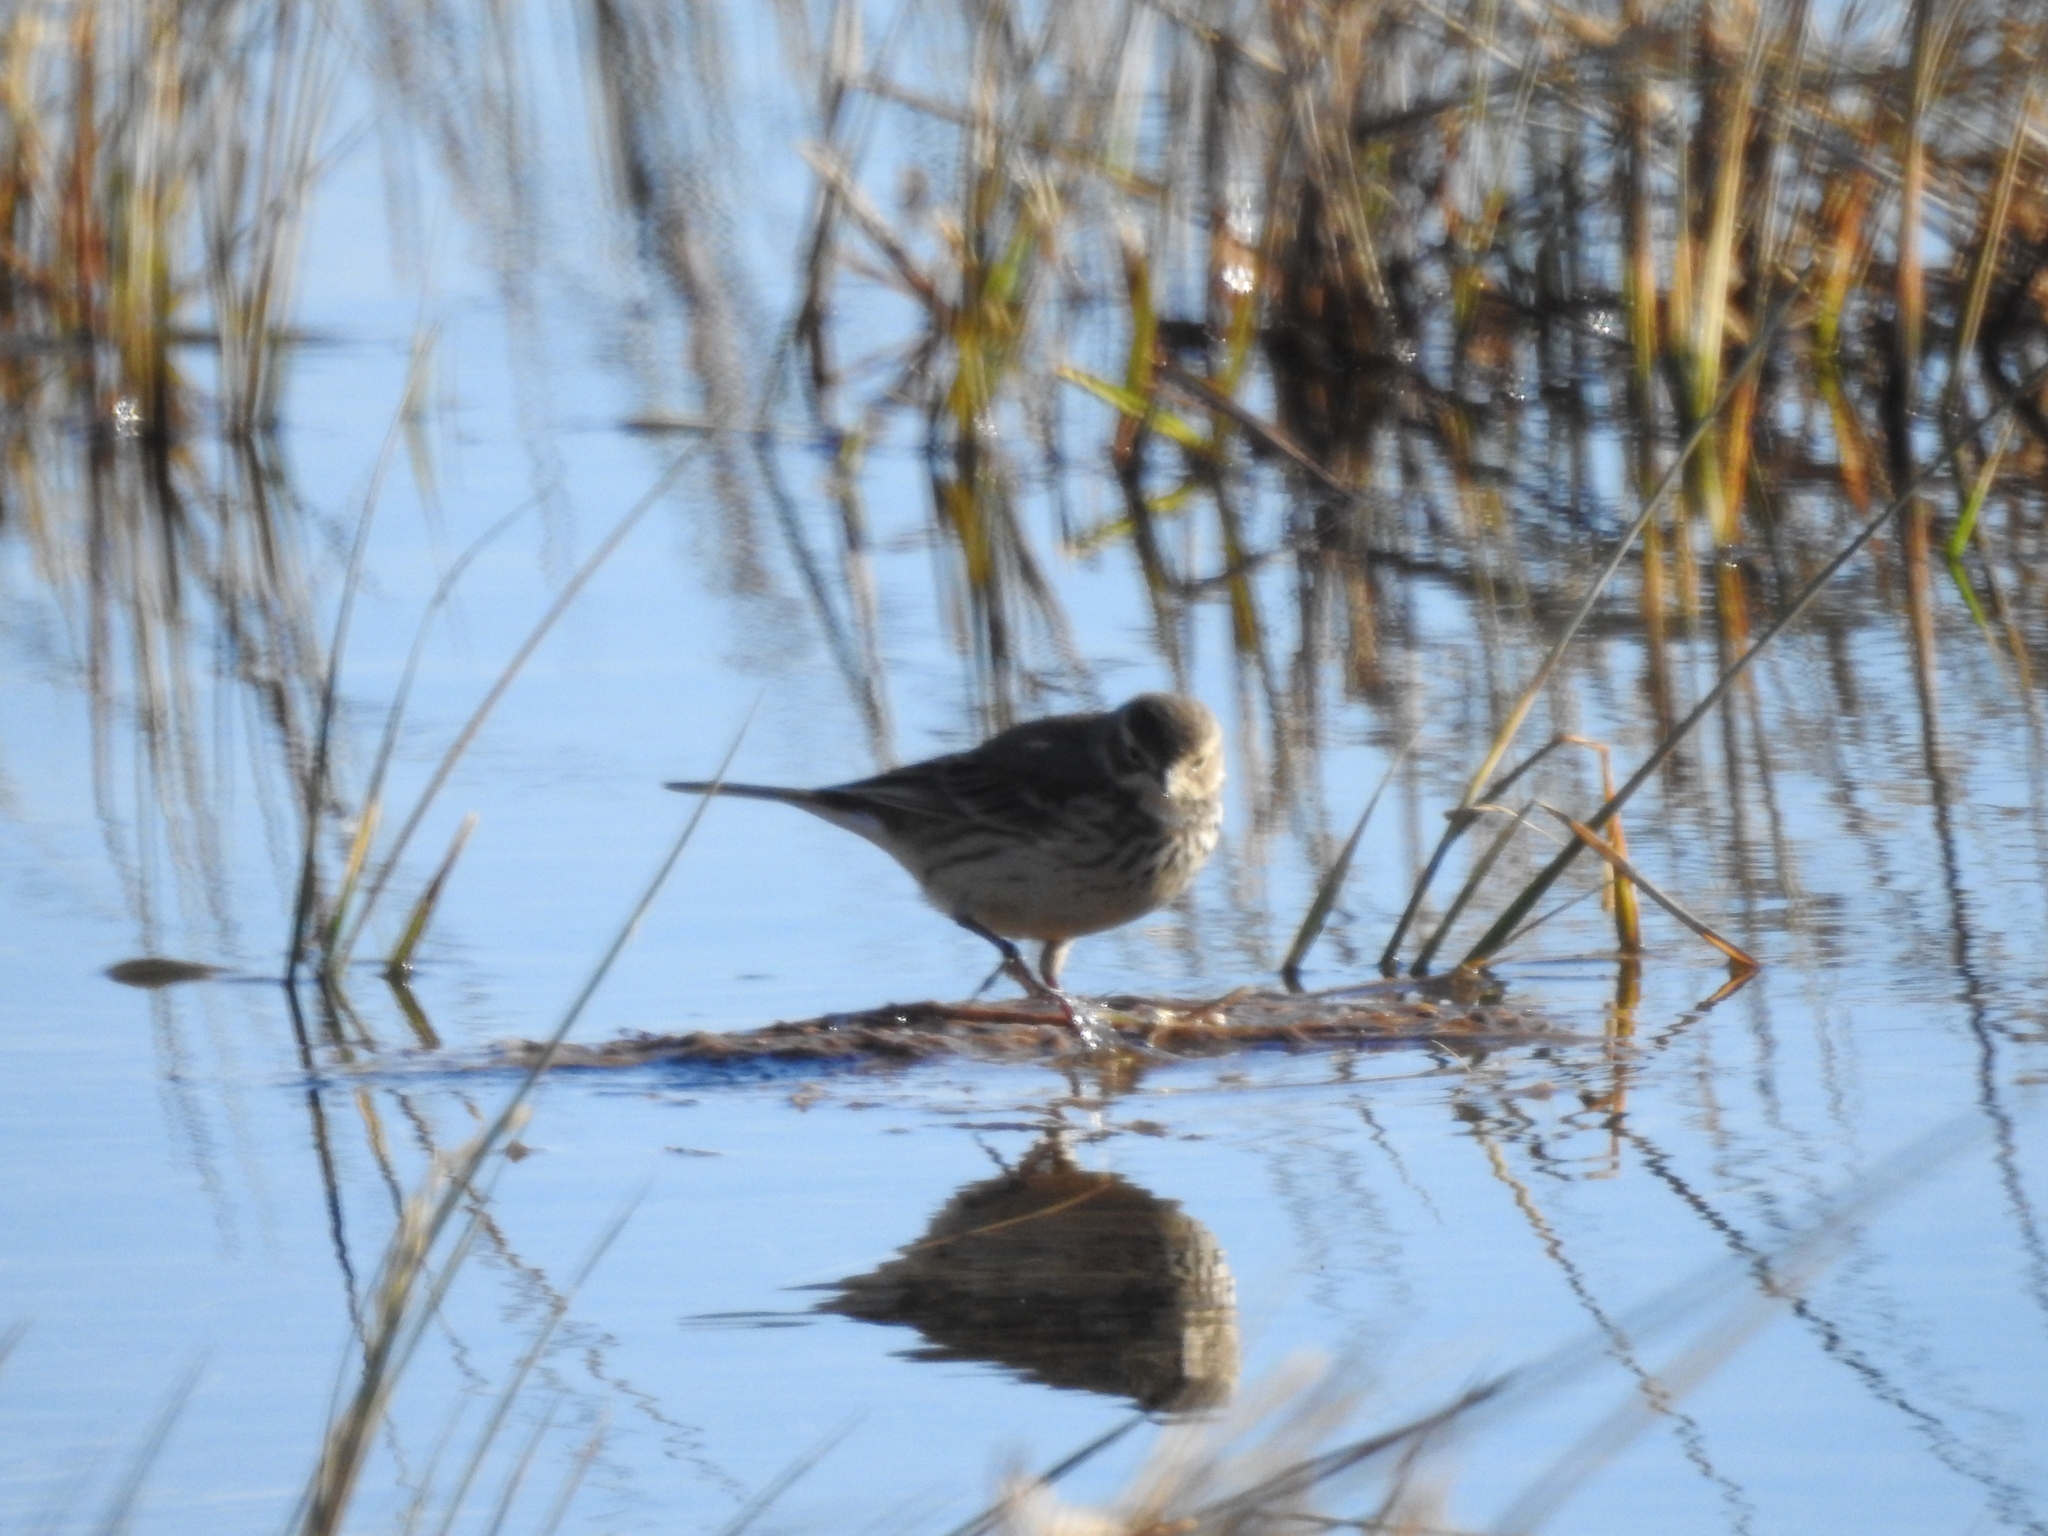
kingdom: Animalia
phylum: Chordata
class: Aves
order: Passeriformes
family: Motacillidae
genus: Anthus
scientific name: Anthus rubescens
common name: Buff-bellied pipit
